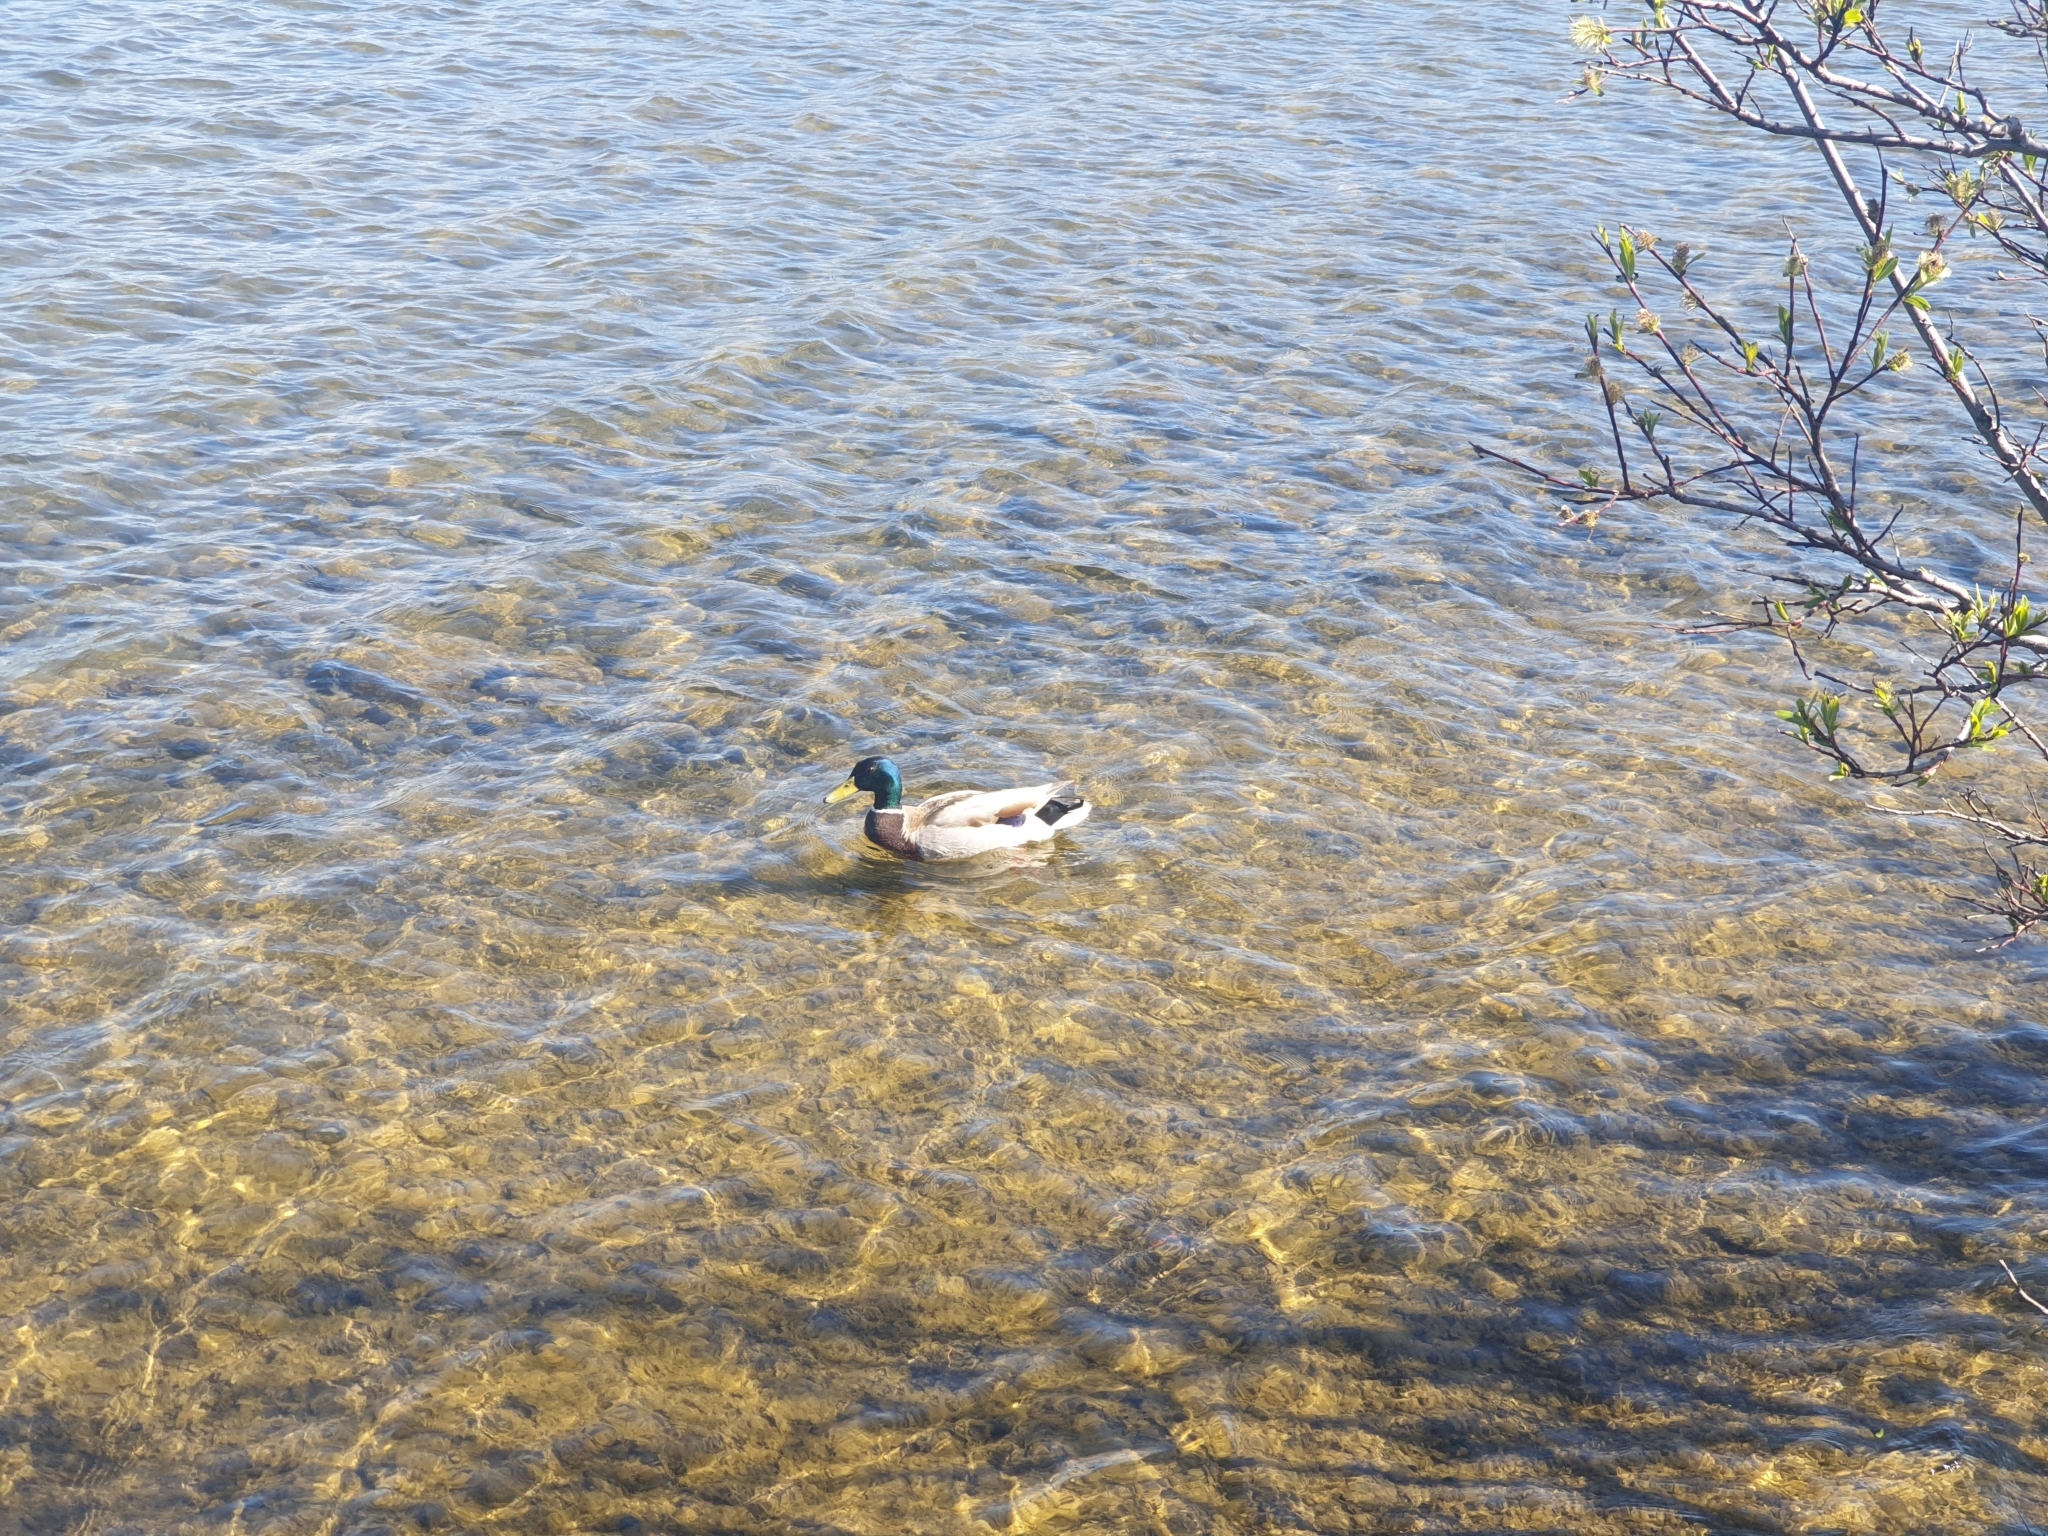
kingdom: Animalia
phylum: Chordata
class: Aves
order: Anseriformes
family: Anatidae
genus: Anas
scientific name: Anas platyrhynchos
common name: Mallard
